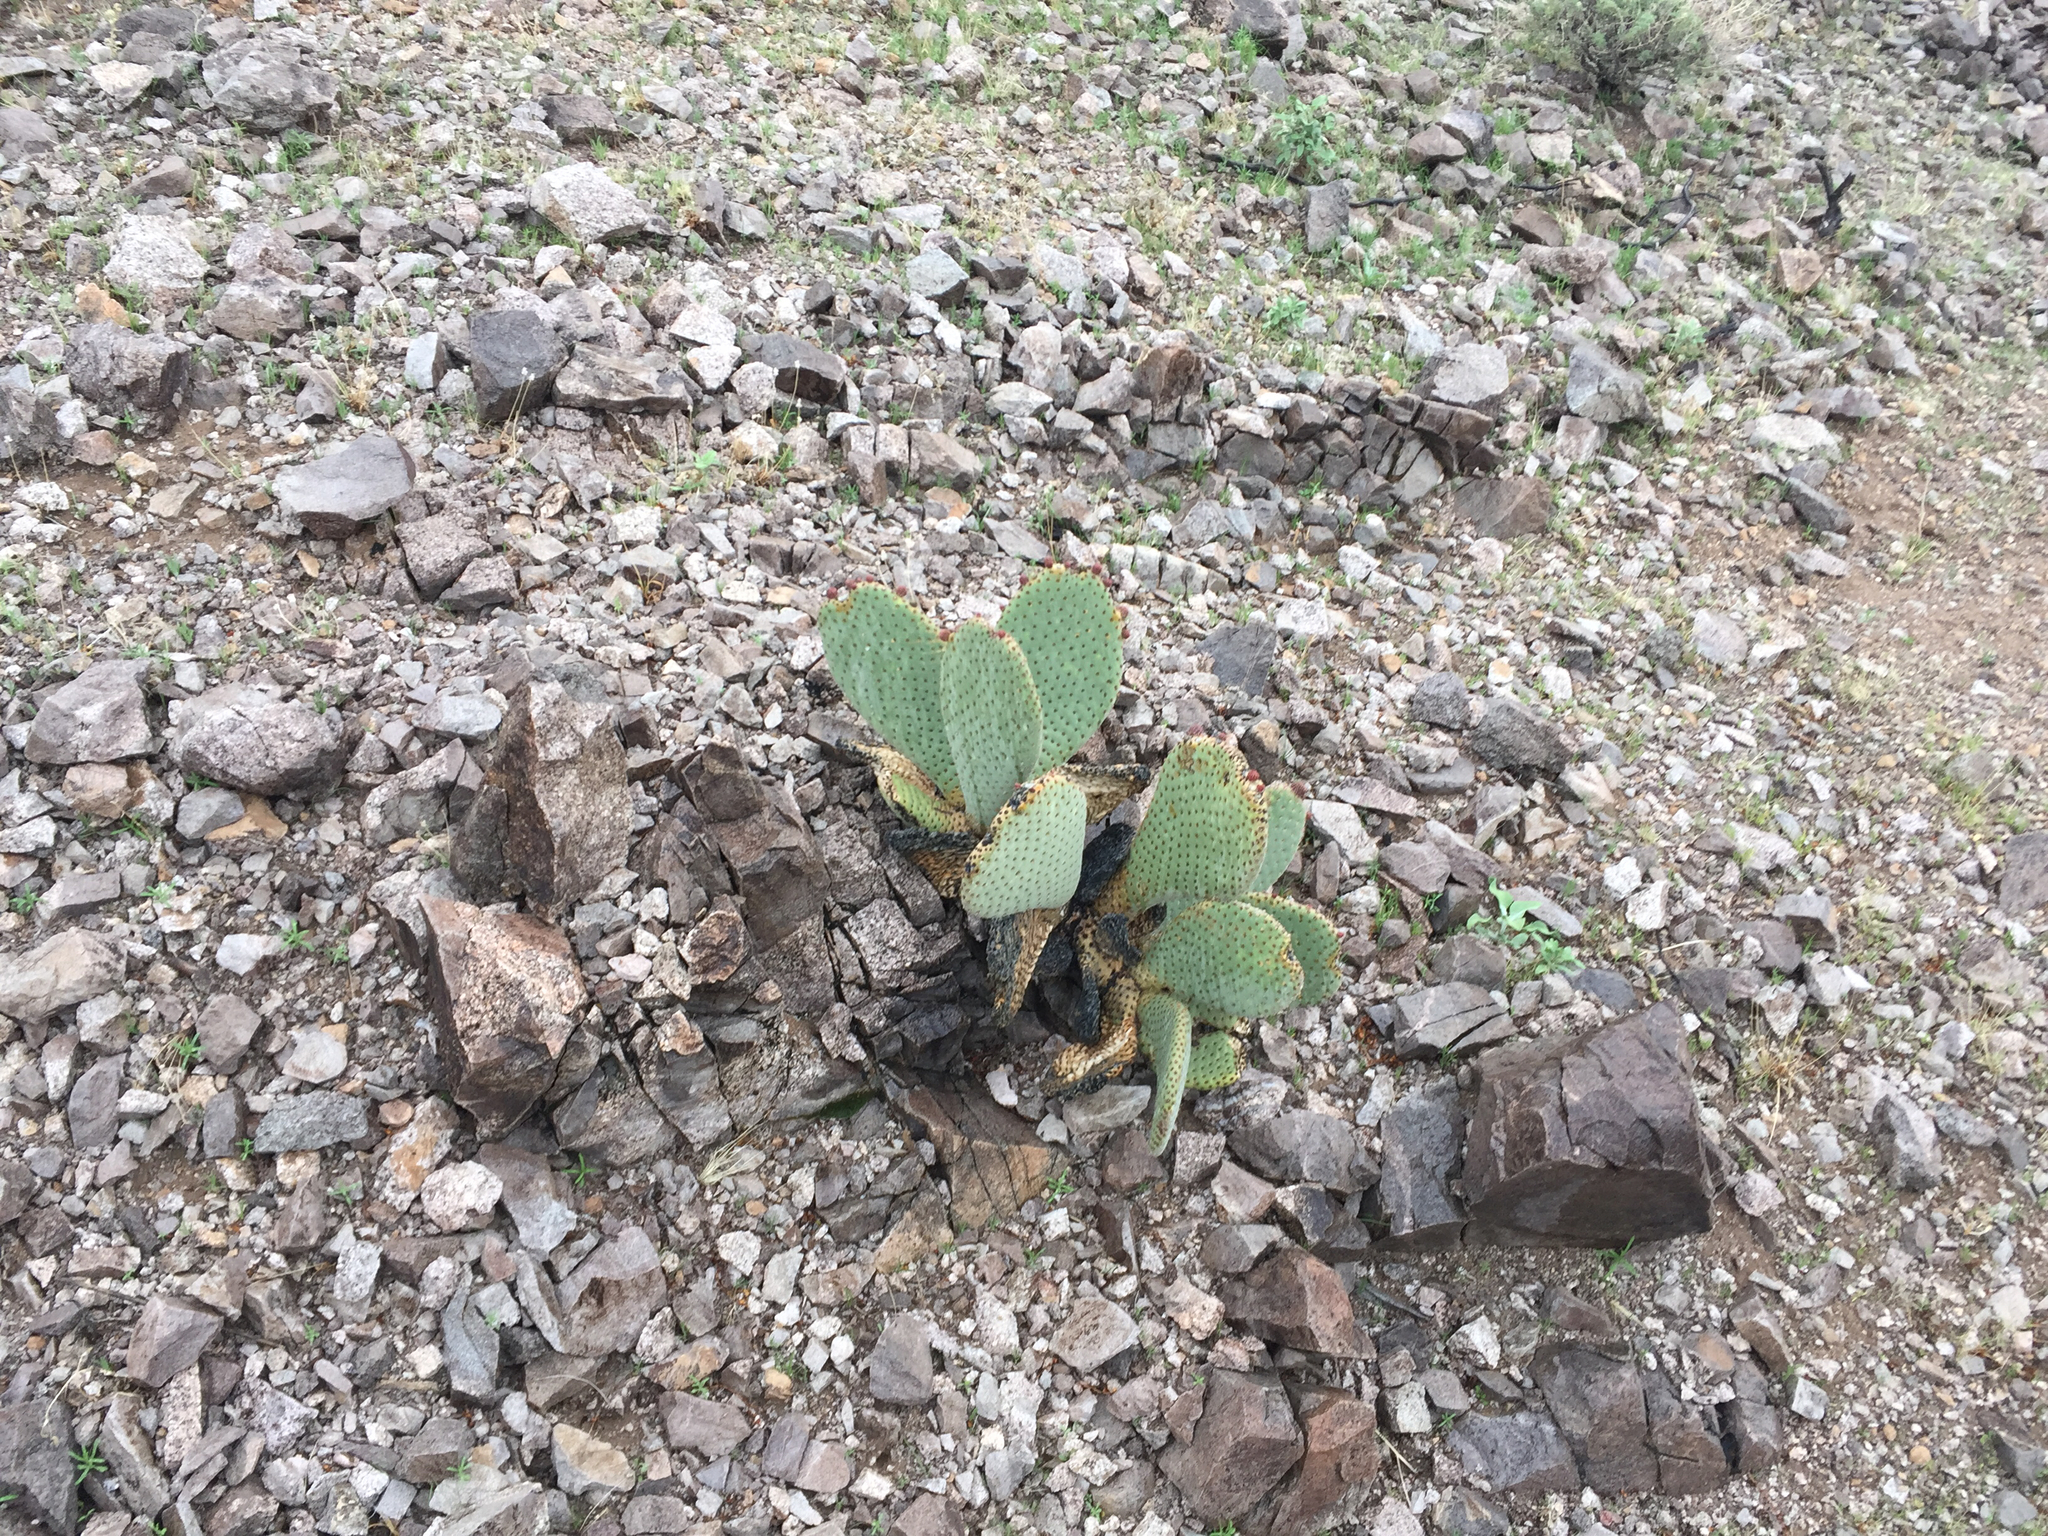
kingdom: Plantae
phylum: Tracheophyta
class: Magnoliopsida
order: Caryophyllales
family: Cactaceae
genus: Opuntia
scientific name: Opuntia basilaris
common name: Beavertail prickly-pear
